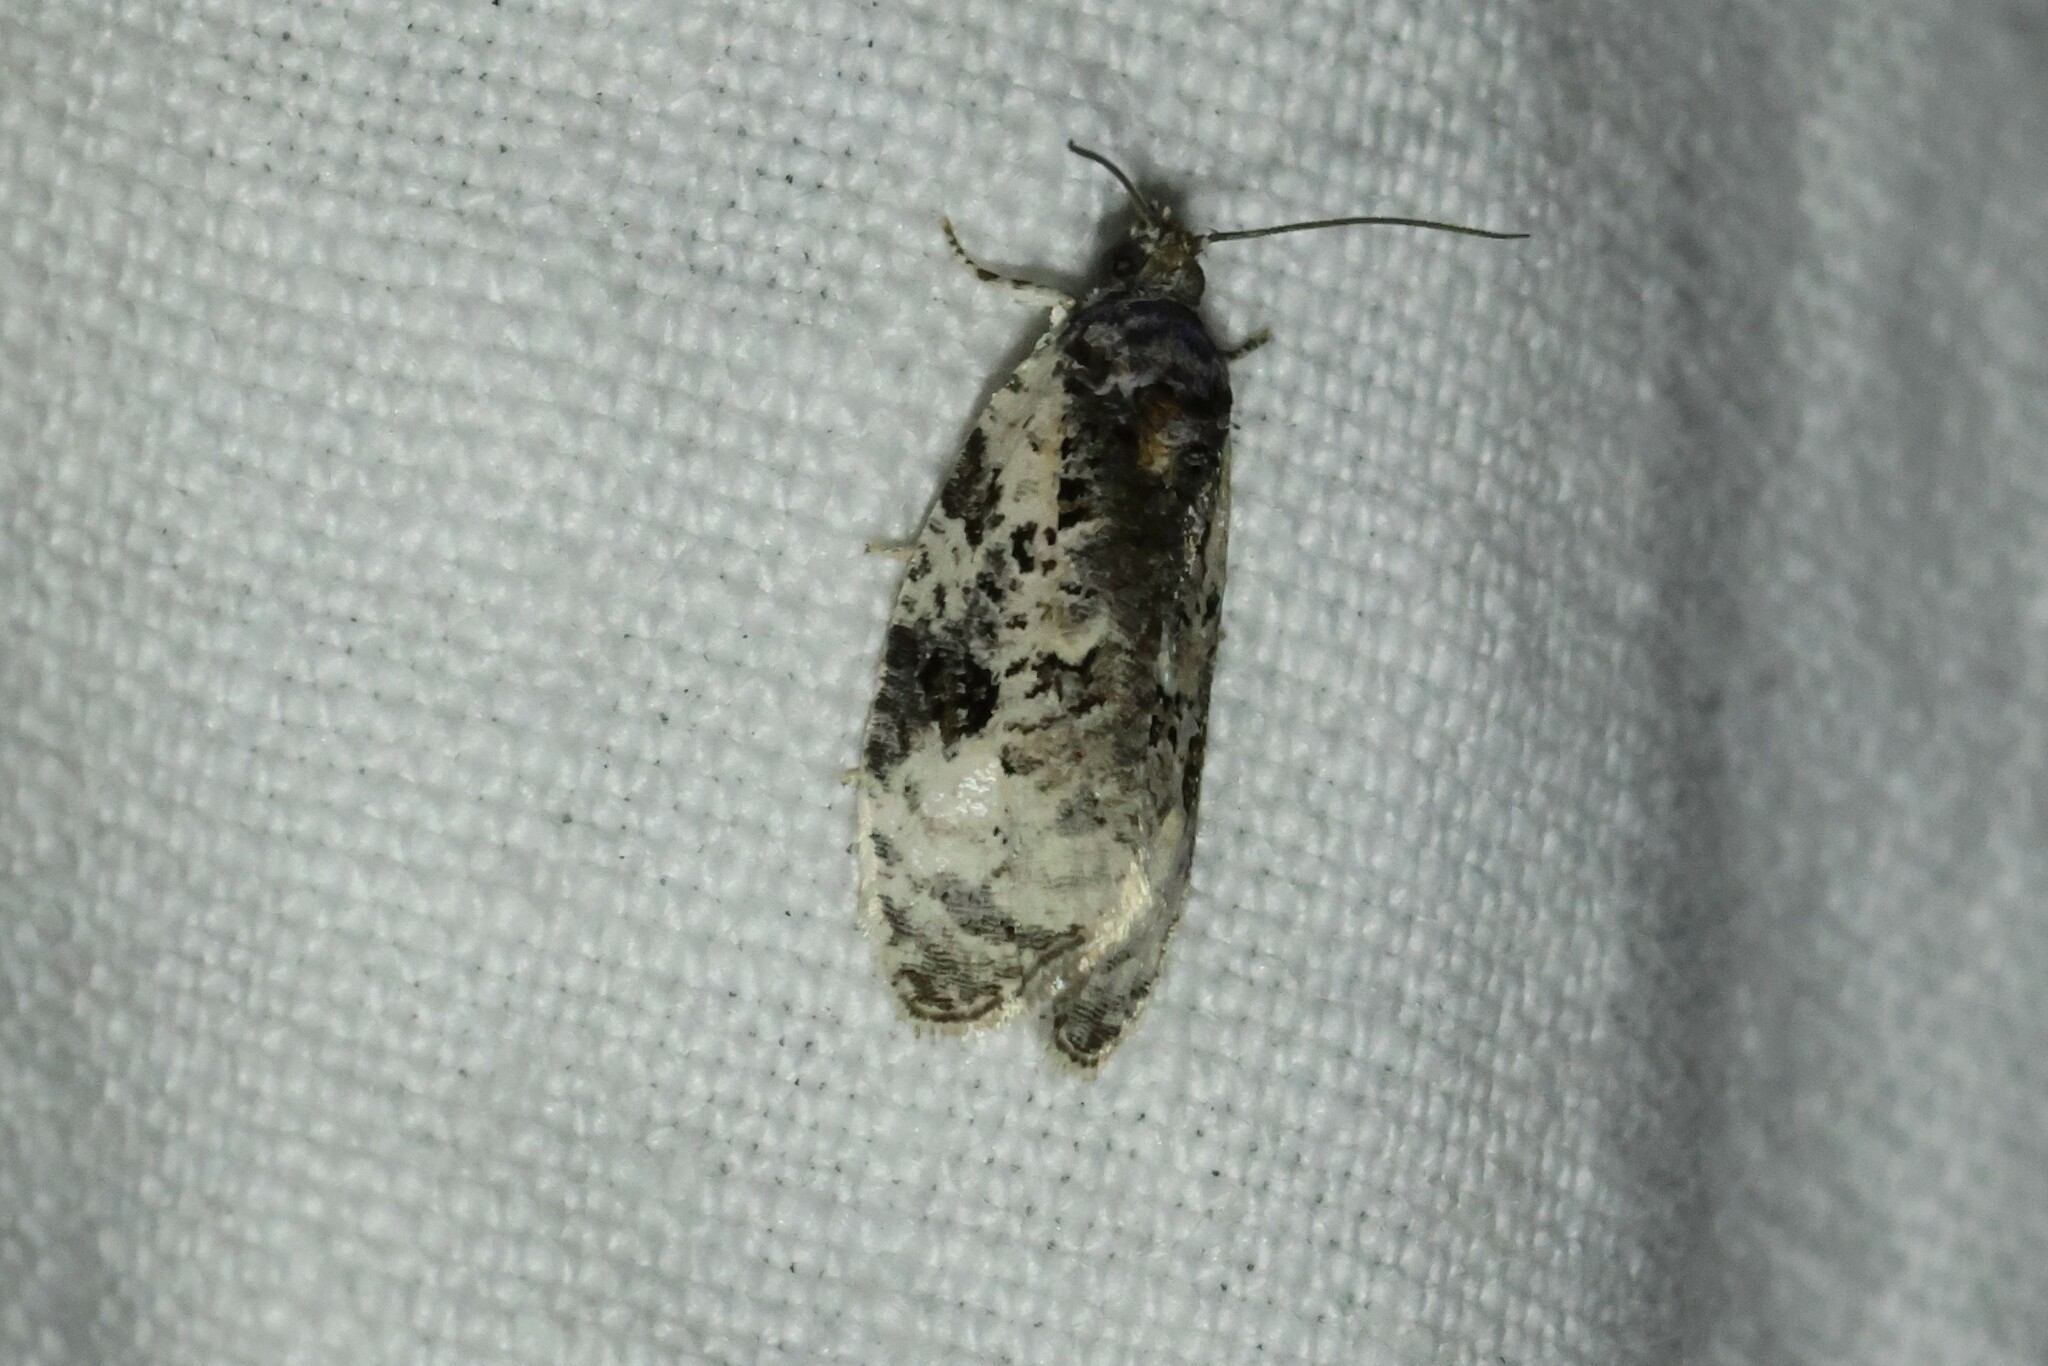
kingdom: Animalia
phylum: Arthropoda
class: Insecta
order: Lepidoptera
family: Tortricidae
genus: Apotomis
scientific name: Apotomis albeolana
